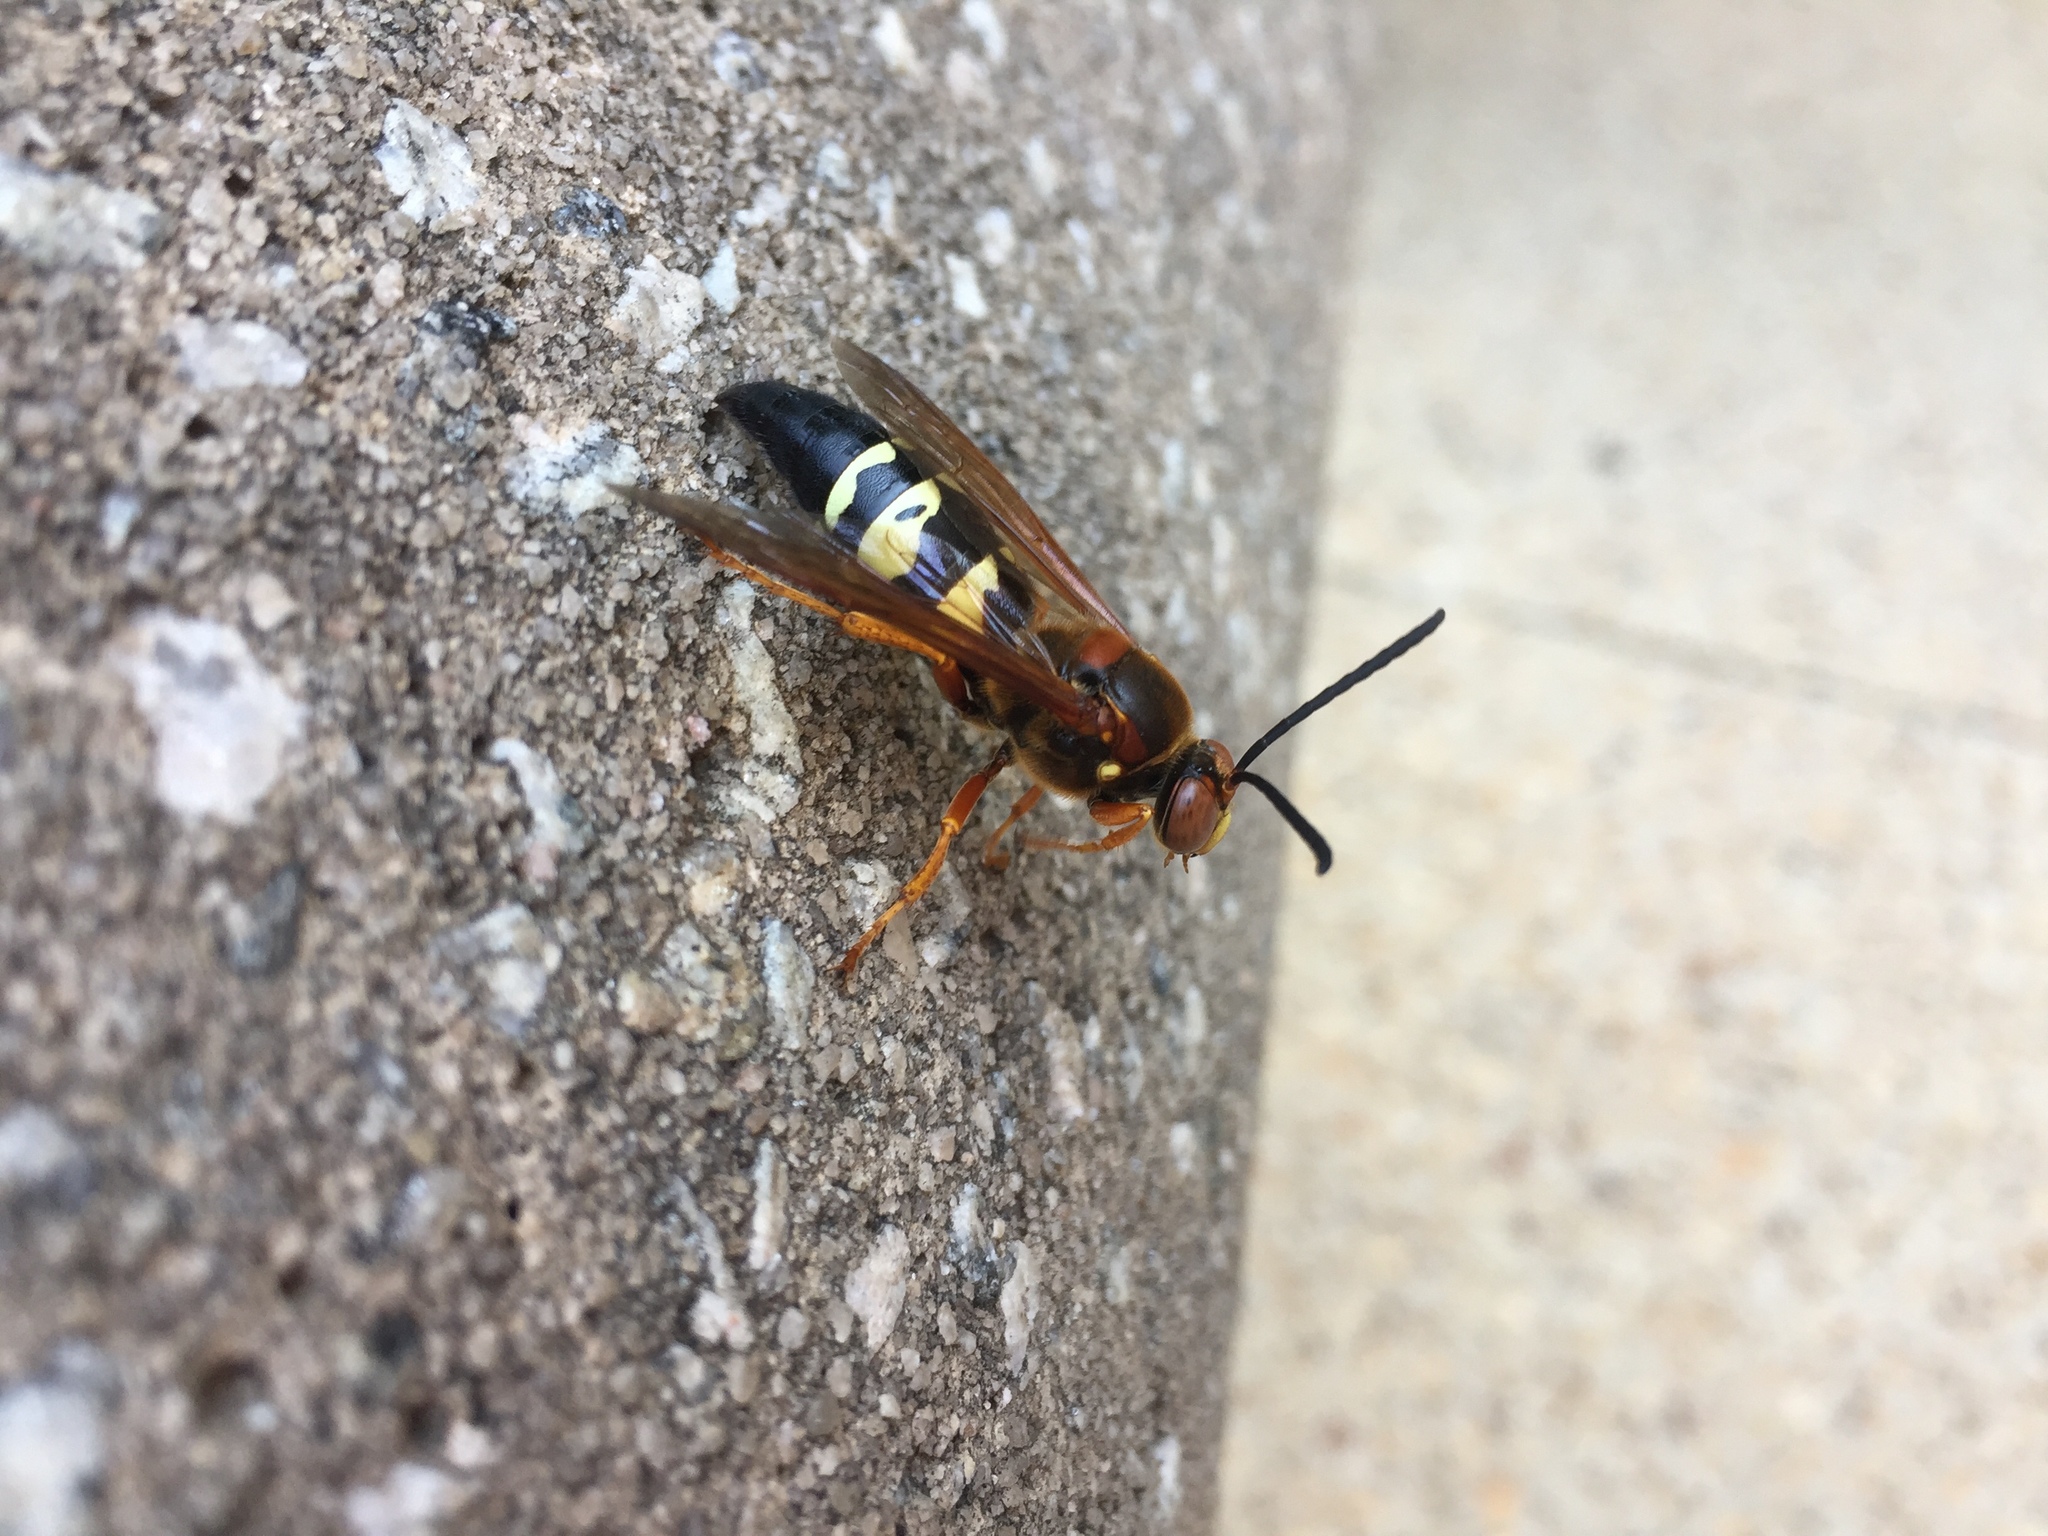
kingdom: Animalia
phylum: Arthropoda
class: Insecta
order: Hymenoptera
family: Crabronidae
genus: Sphecius
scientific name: Sphecius speciosus
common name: Cicada killer
